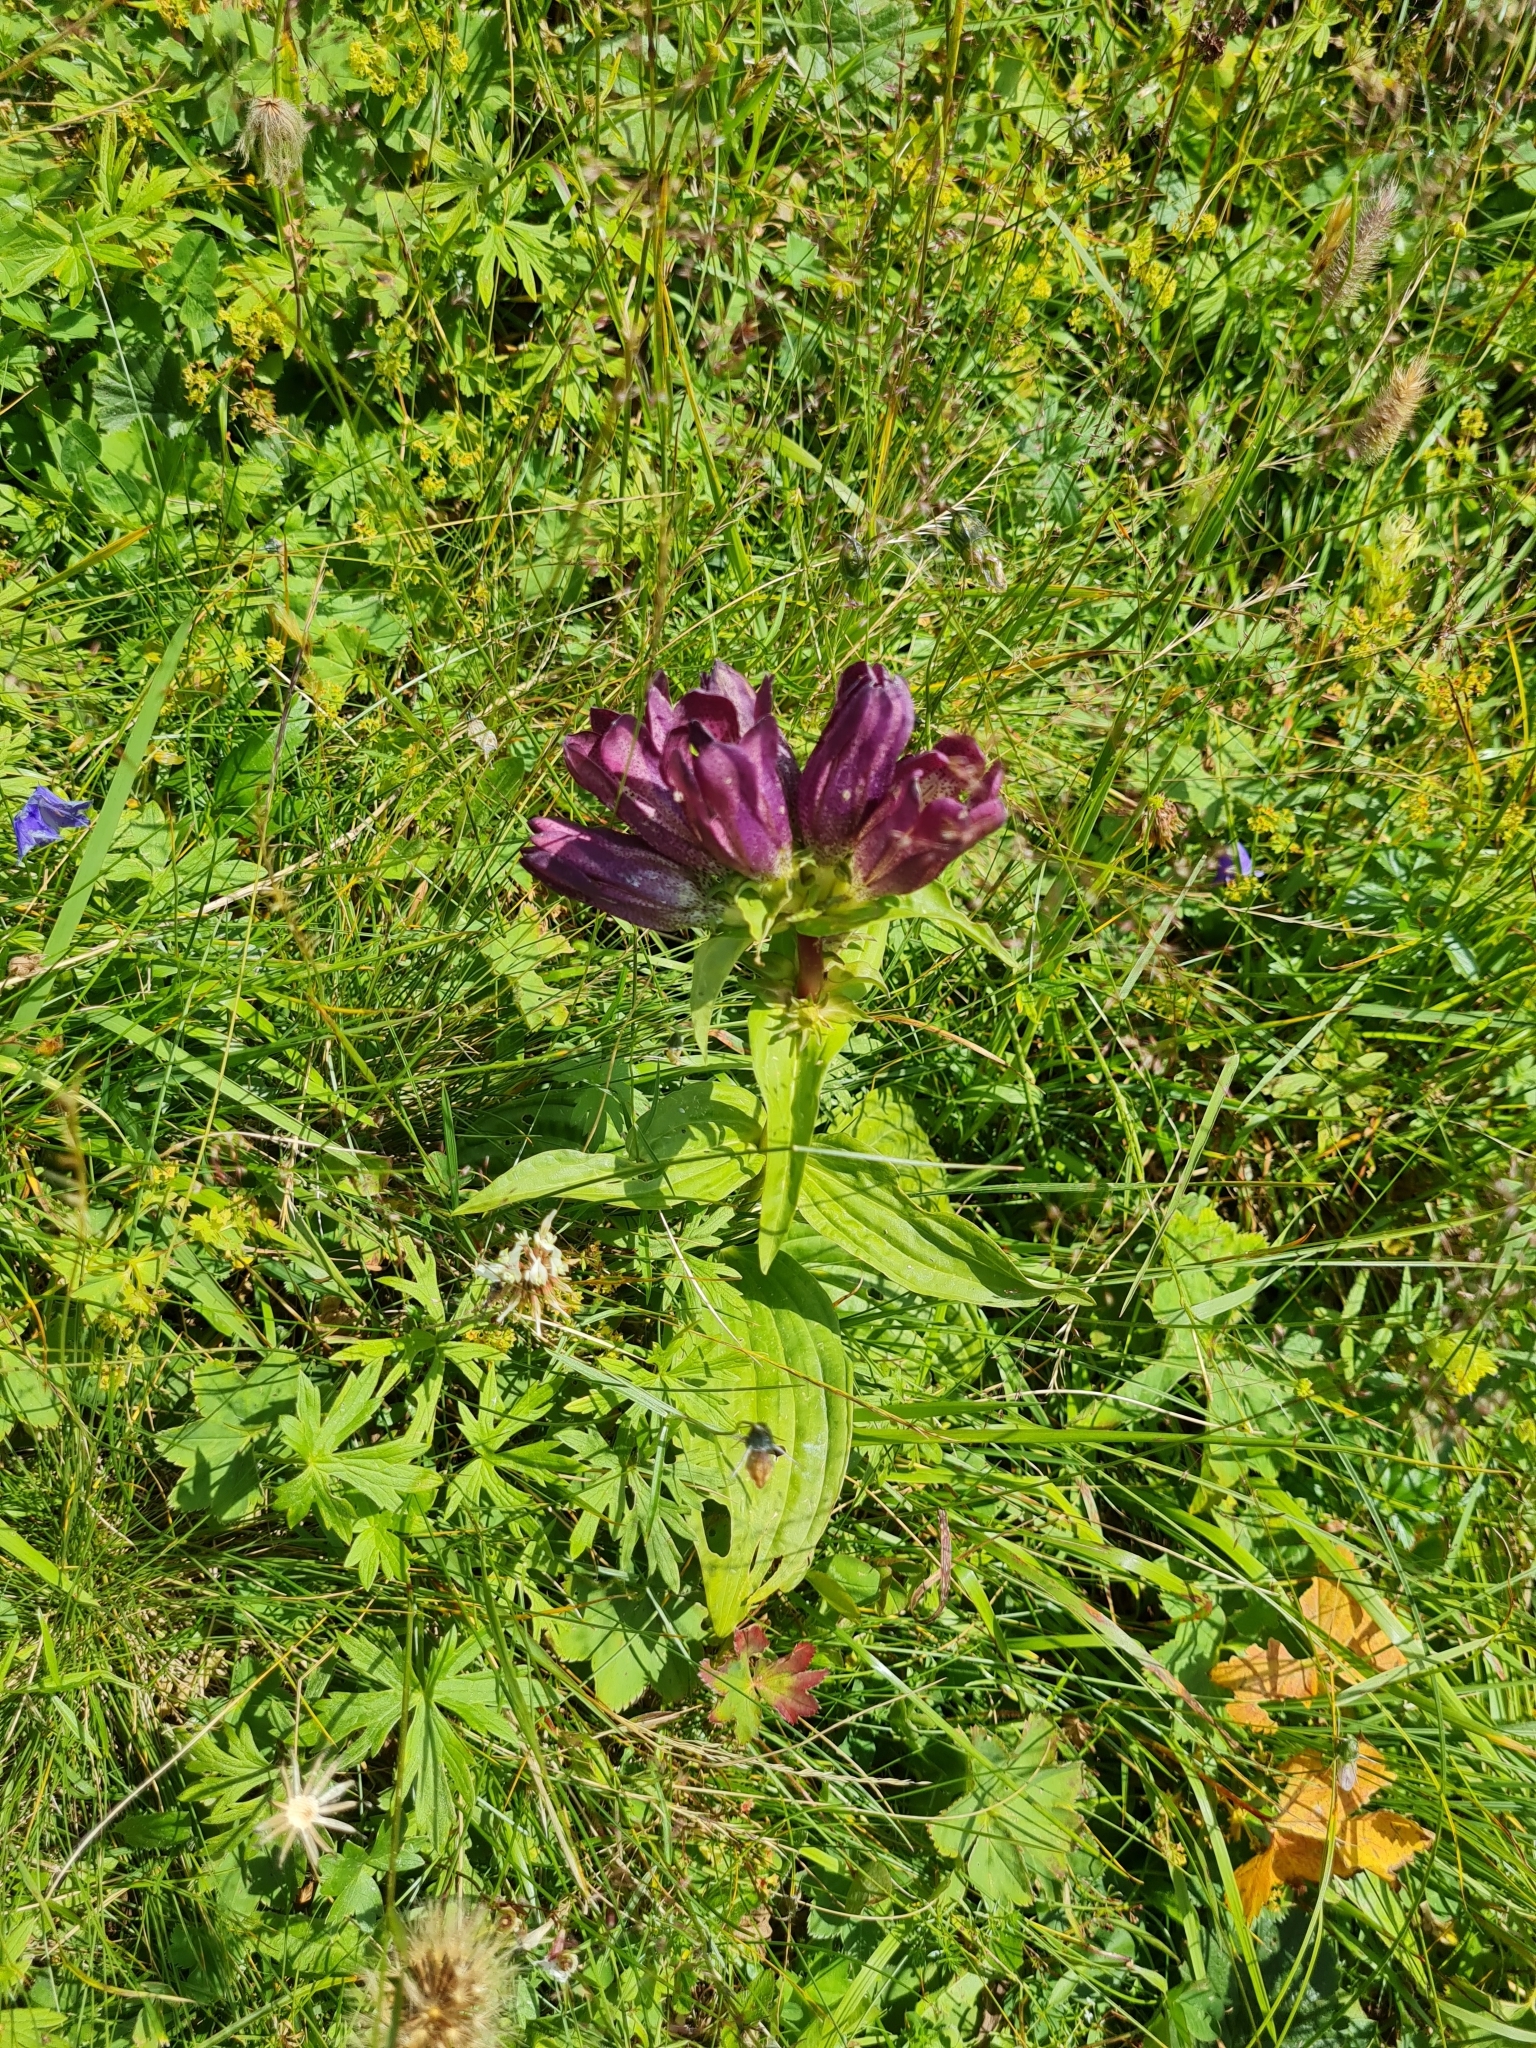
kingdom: Plantae
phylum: Tracheophyta
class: Magnoliopsida
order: Gentianales
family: Gentianaceae
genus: Gentiana
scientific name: Gentiana pannonica
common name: Hungarian gentian
